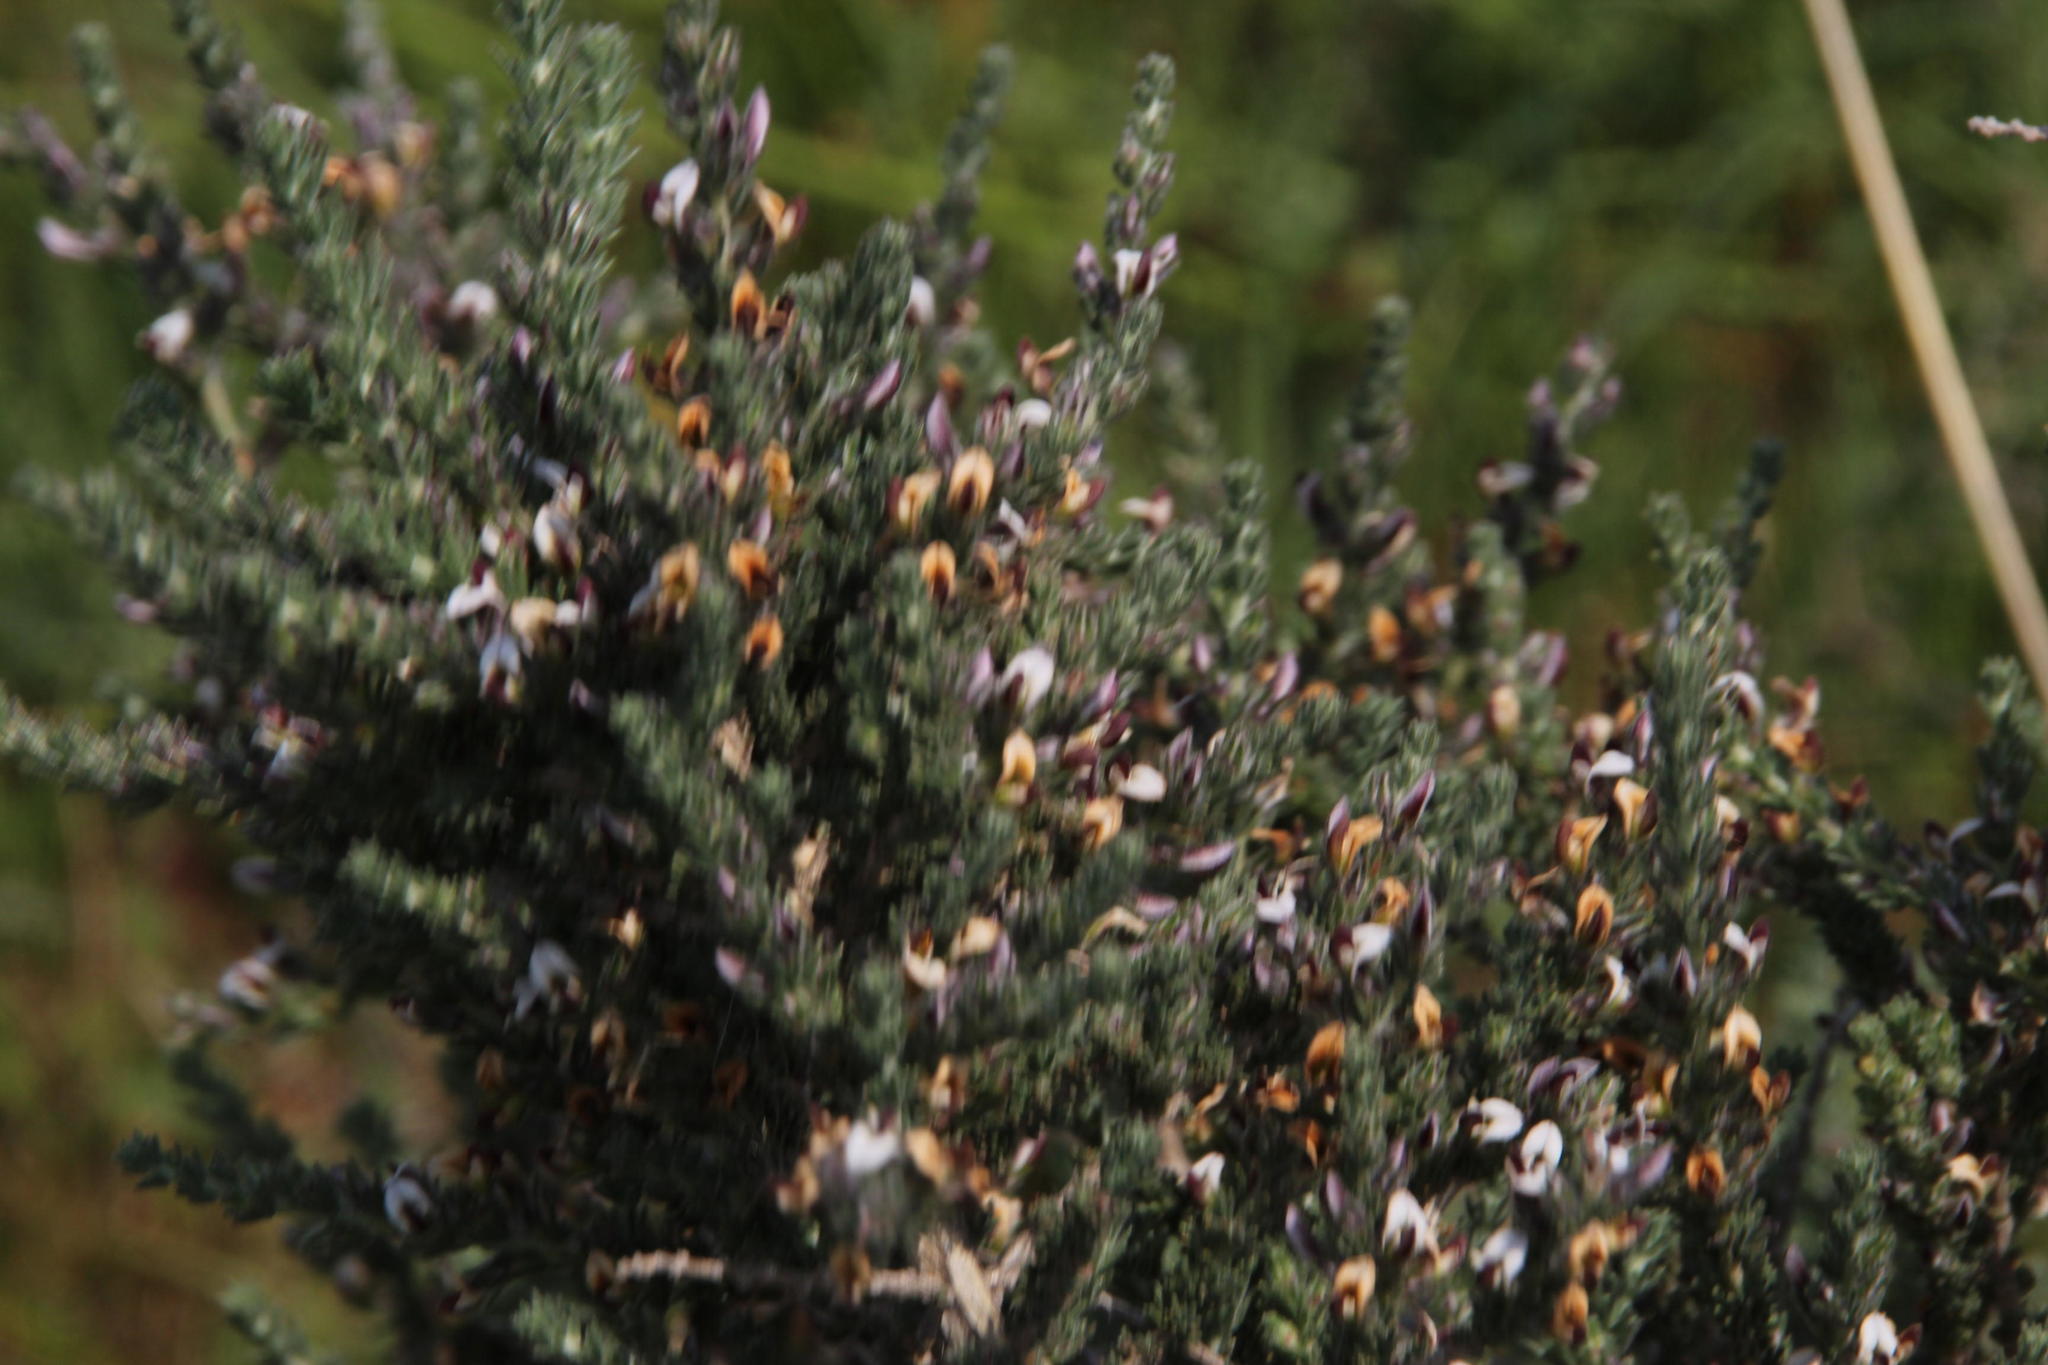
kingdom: Plantae
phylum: Tracheophyta
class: Magnoliopsida
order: Fabales
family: Fabaceae
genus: Aspalathus
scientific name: Aspalathus hispida
